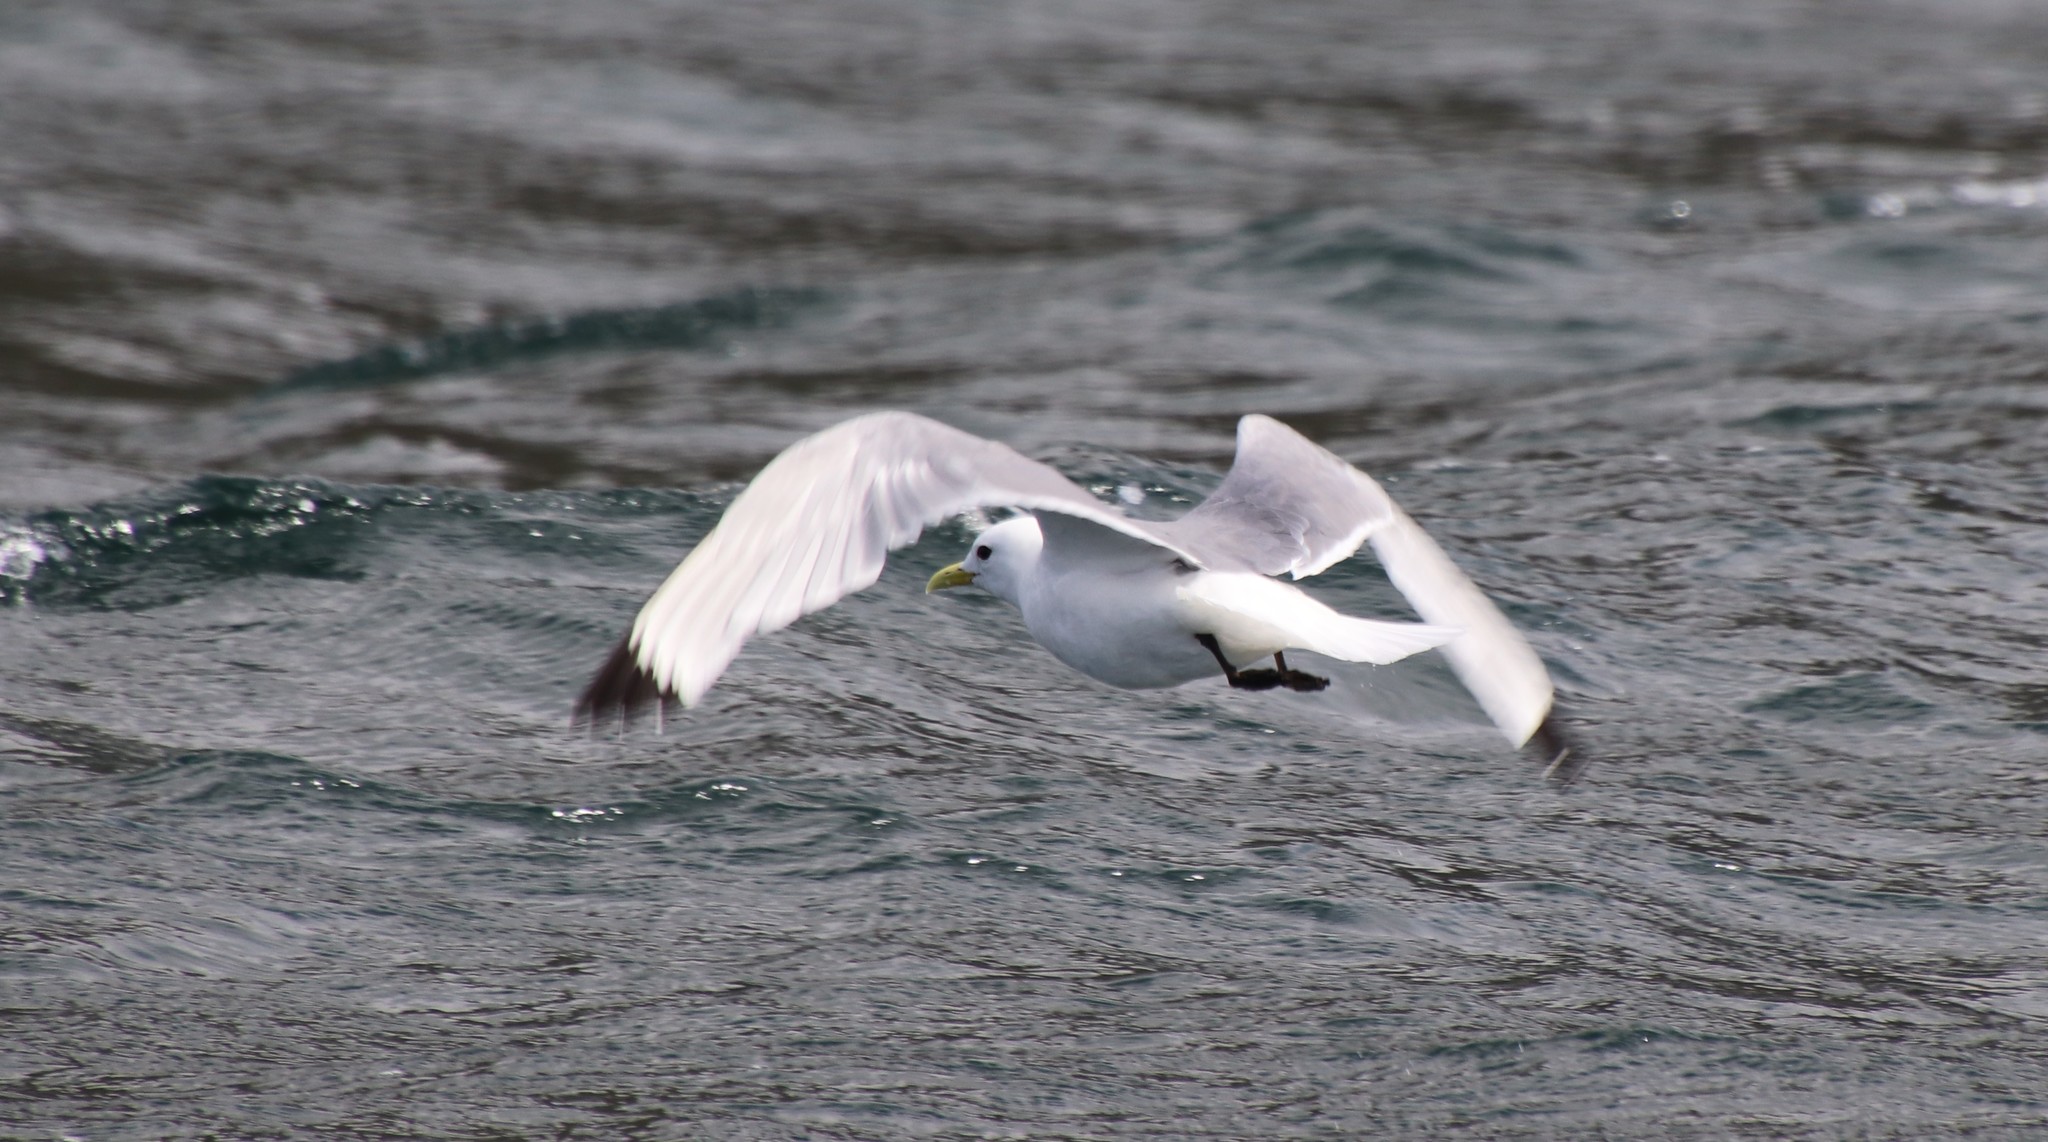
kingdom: Animalia
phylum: Chordata
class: Aves
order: Charadriiformes
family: Laridae
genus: Rissa
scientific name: Rissa tridactyla
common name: Black-legged kittiwake
